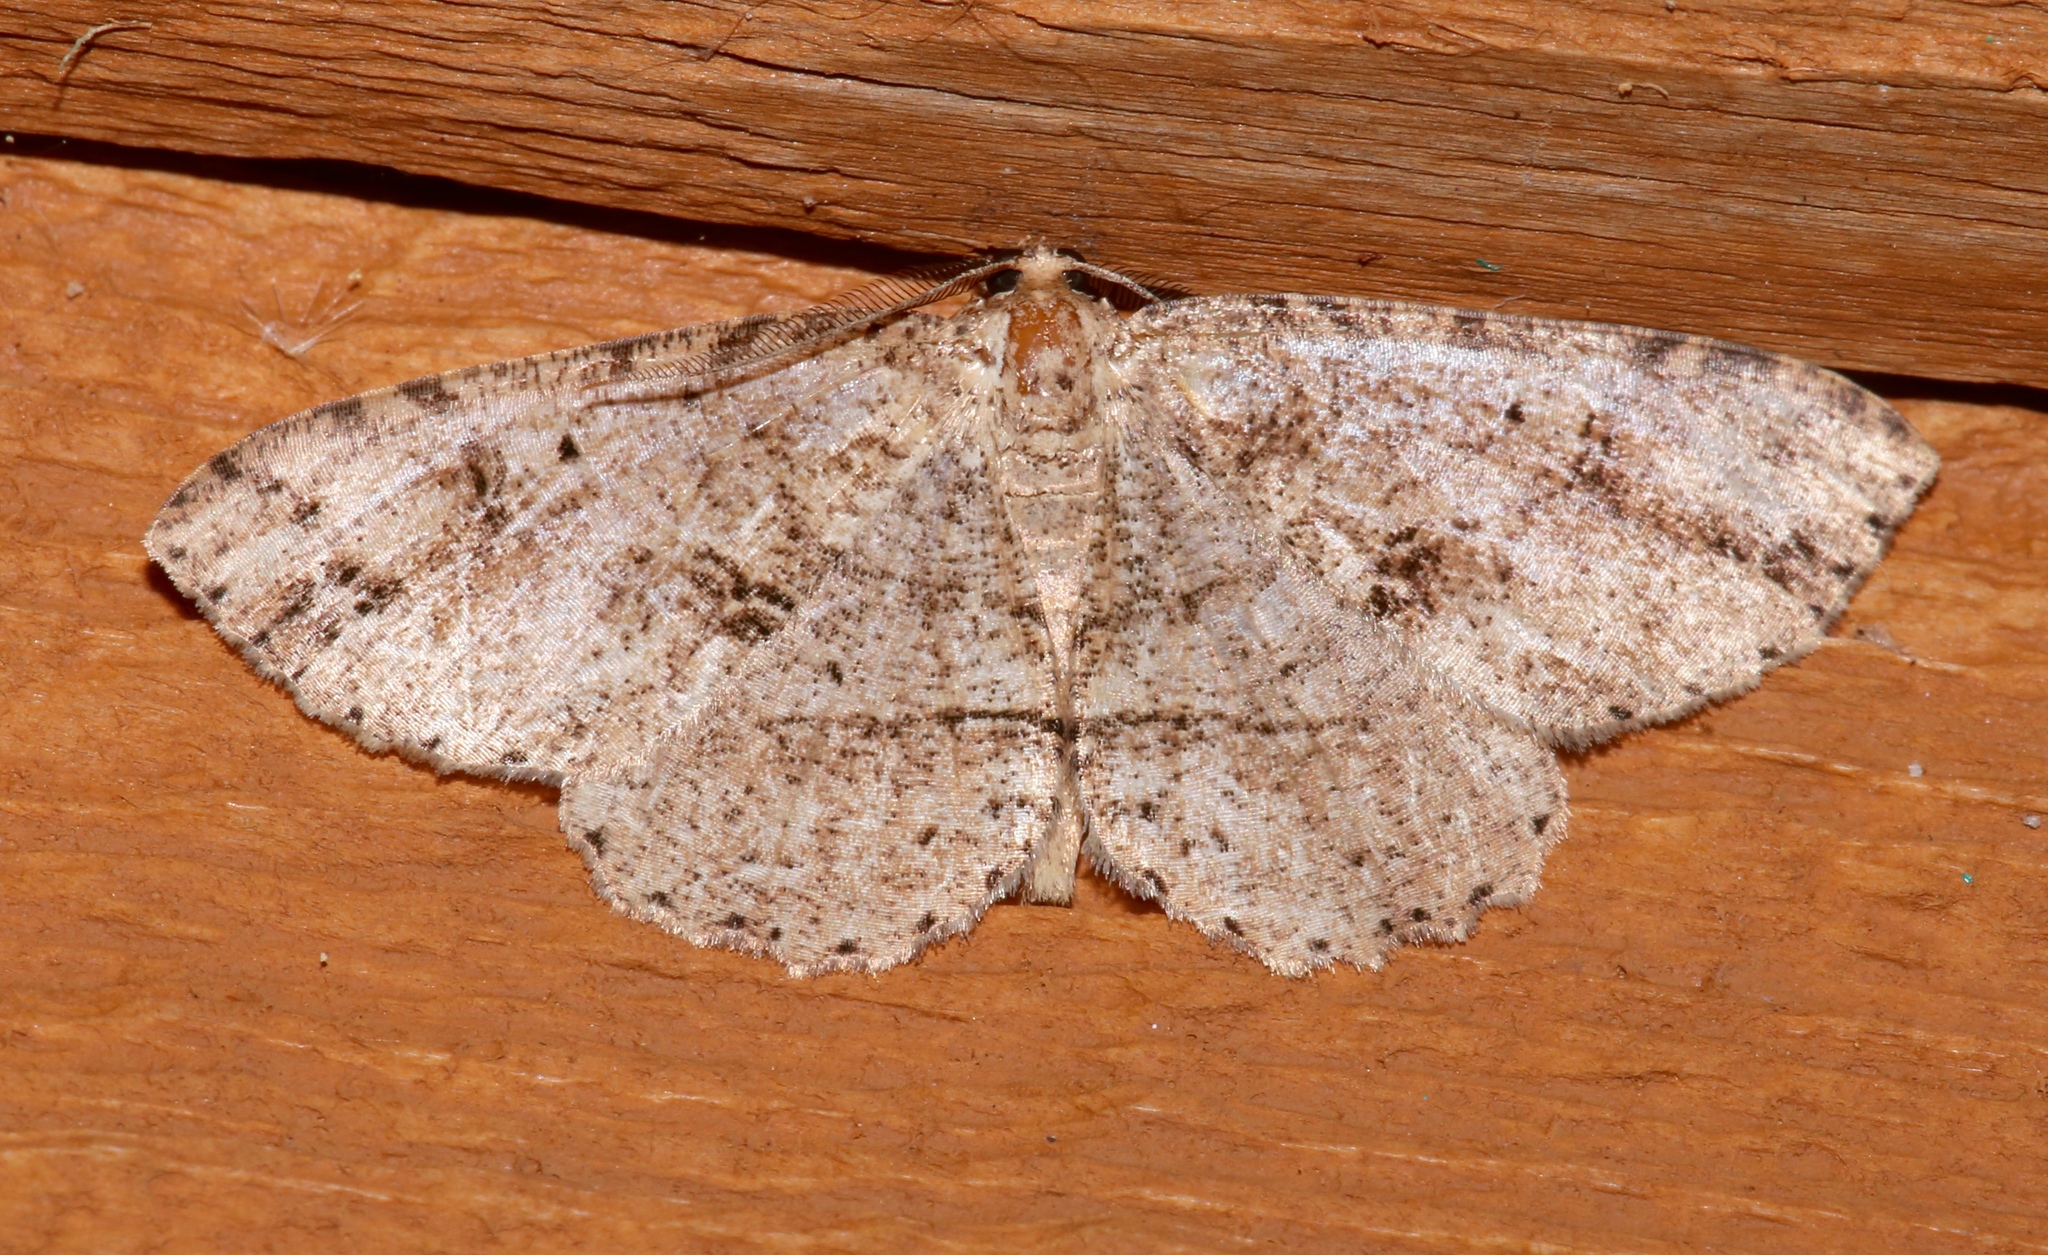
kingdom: Animalia
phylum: Arthropoda
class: Insecta
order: Lepidoptera
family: Geometridae
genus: Melanolophia
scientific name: Melanolophia canadaria
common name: Canadian melanolophia
